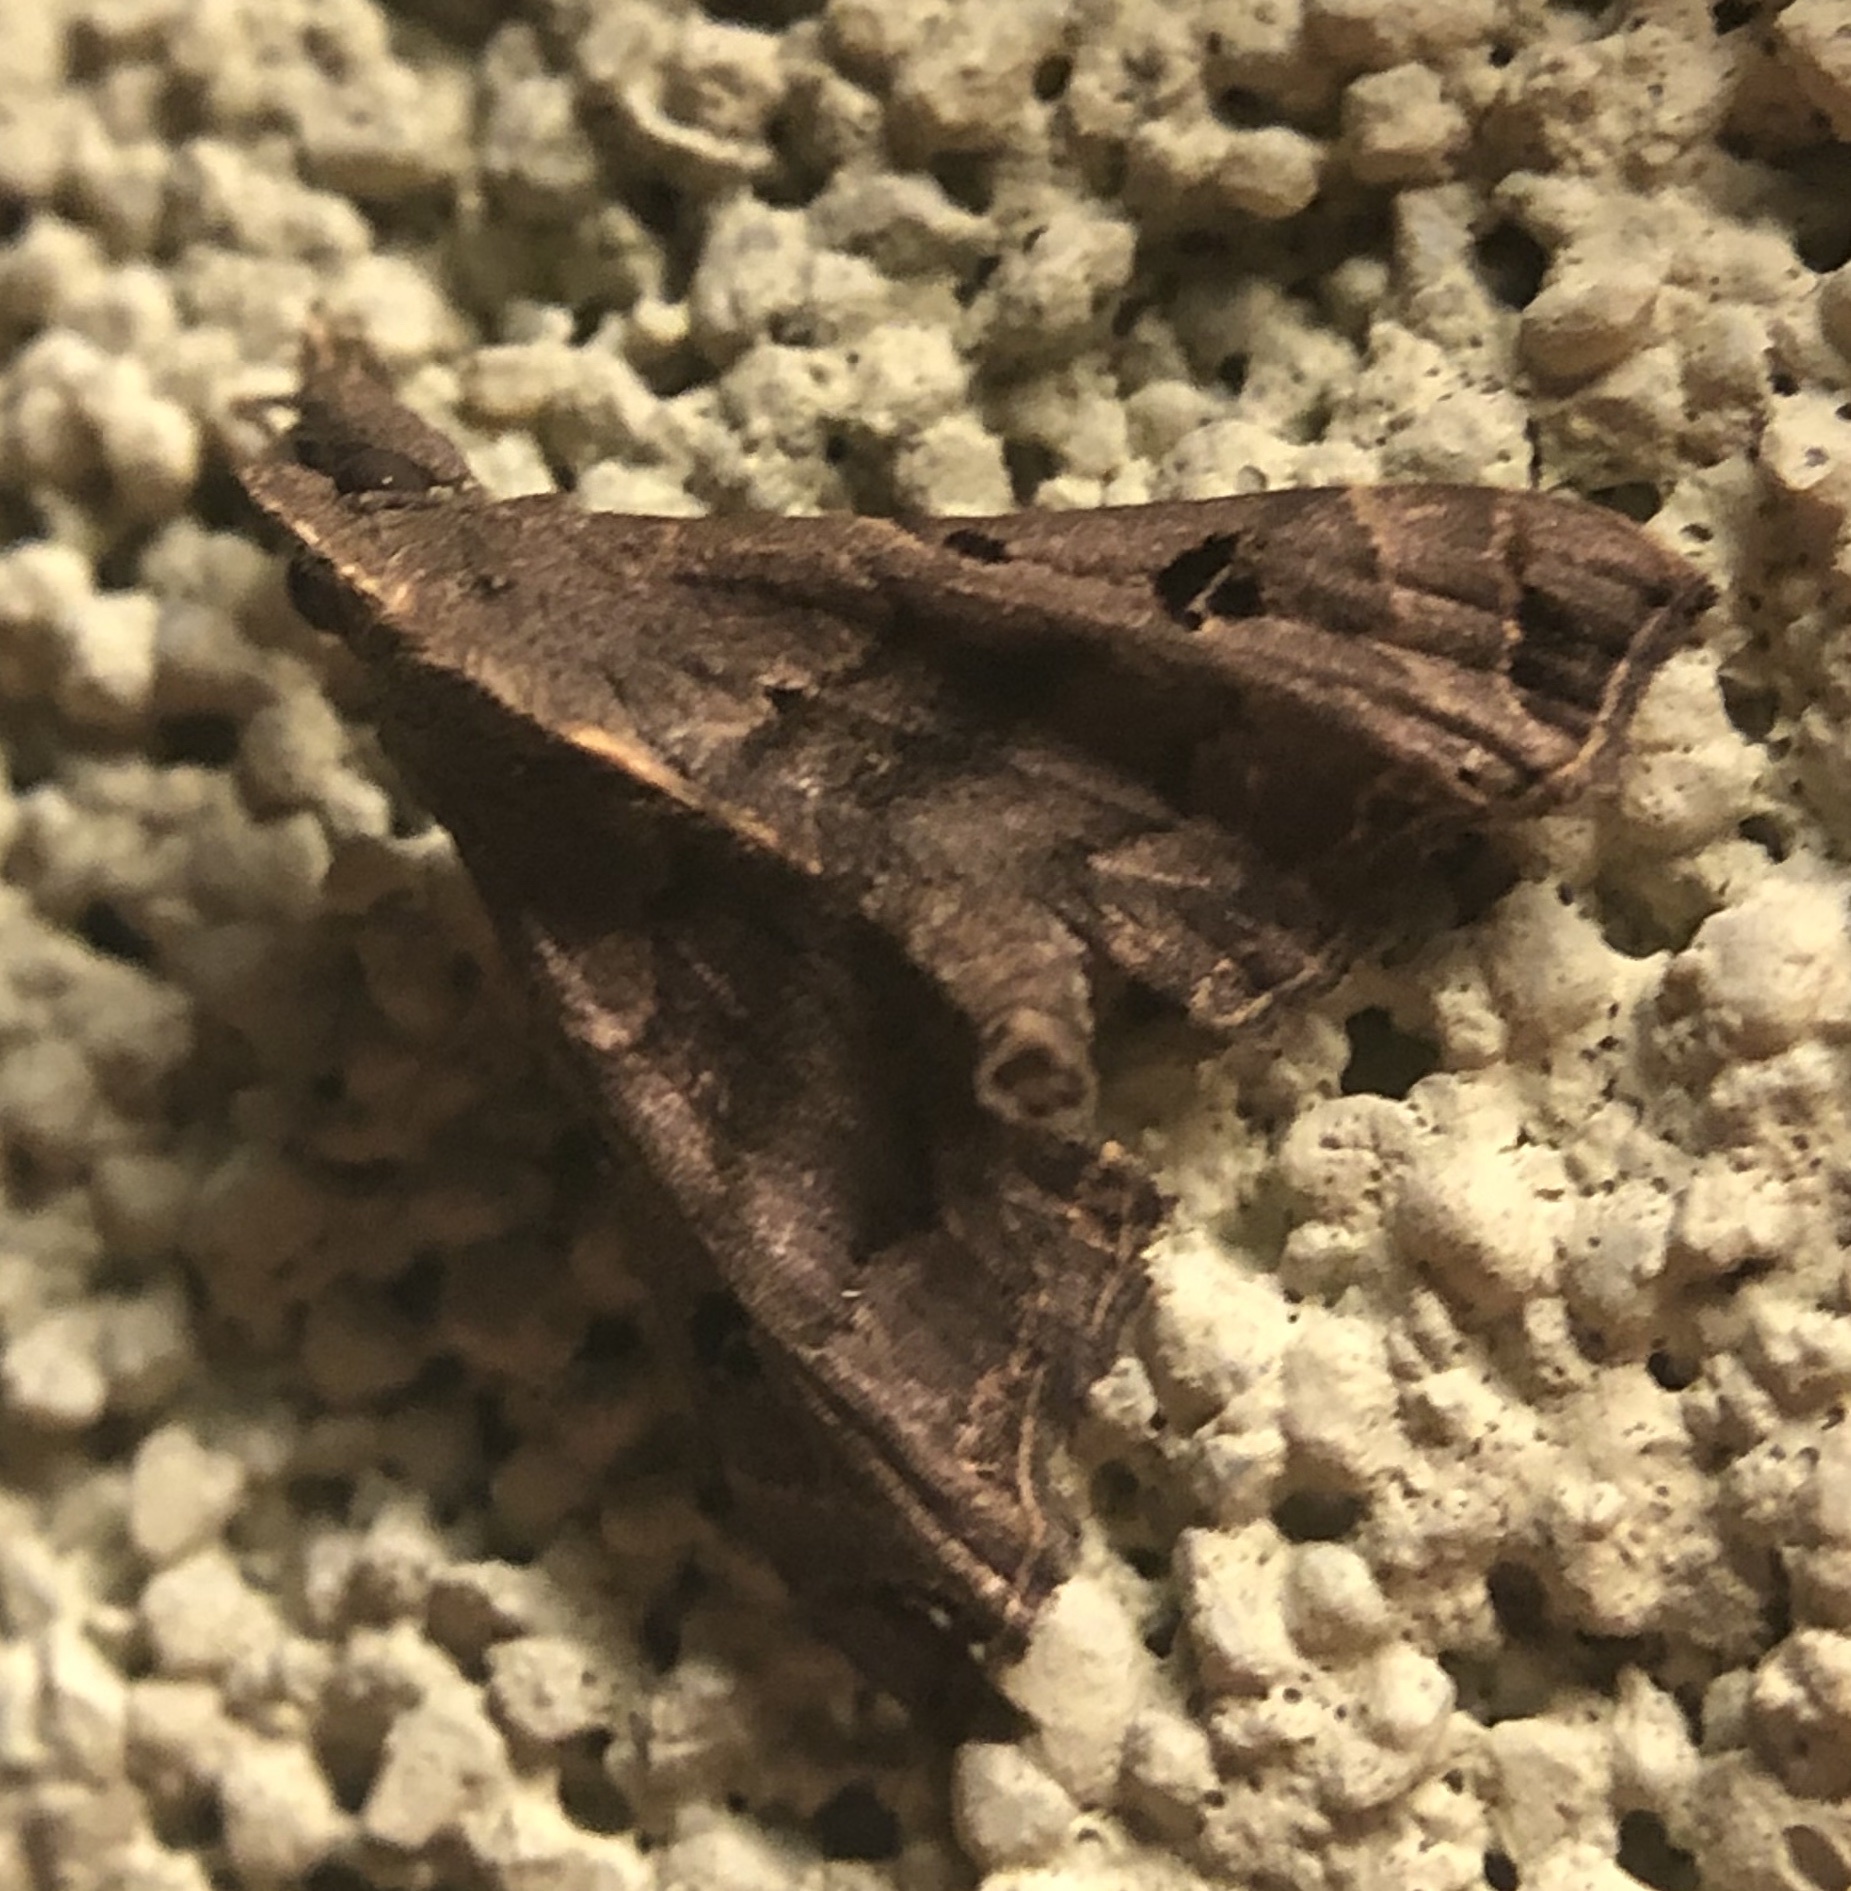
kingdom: Animalia
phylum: Arthropoda
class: Insecta
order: Lepidoptera
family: Erebidae
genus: Palthis
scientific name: Palthis asopialis
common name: Faint-spotted palthis moth
